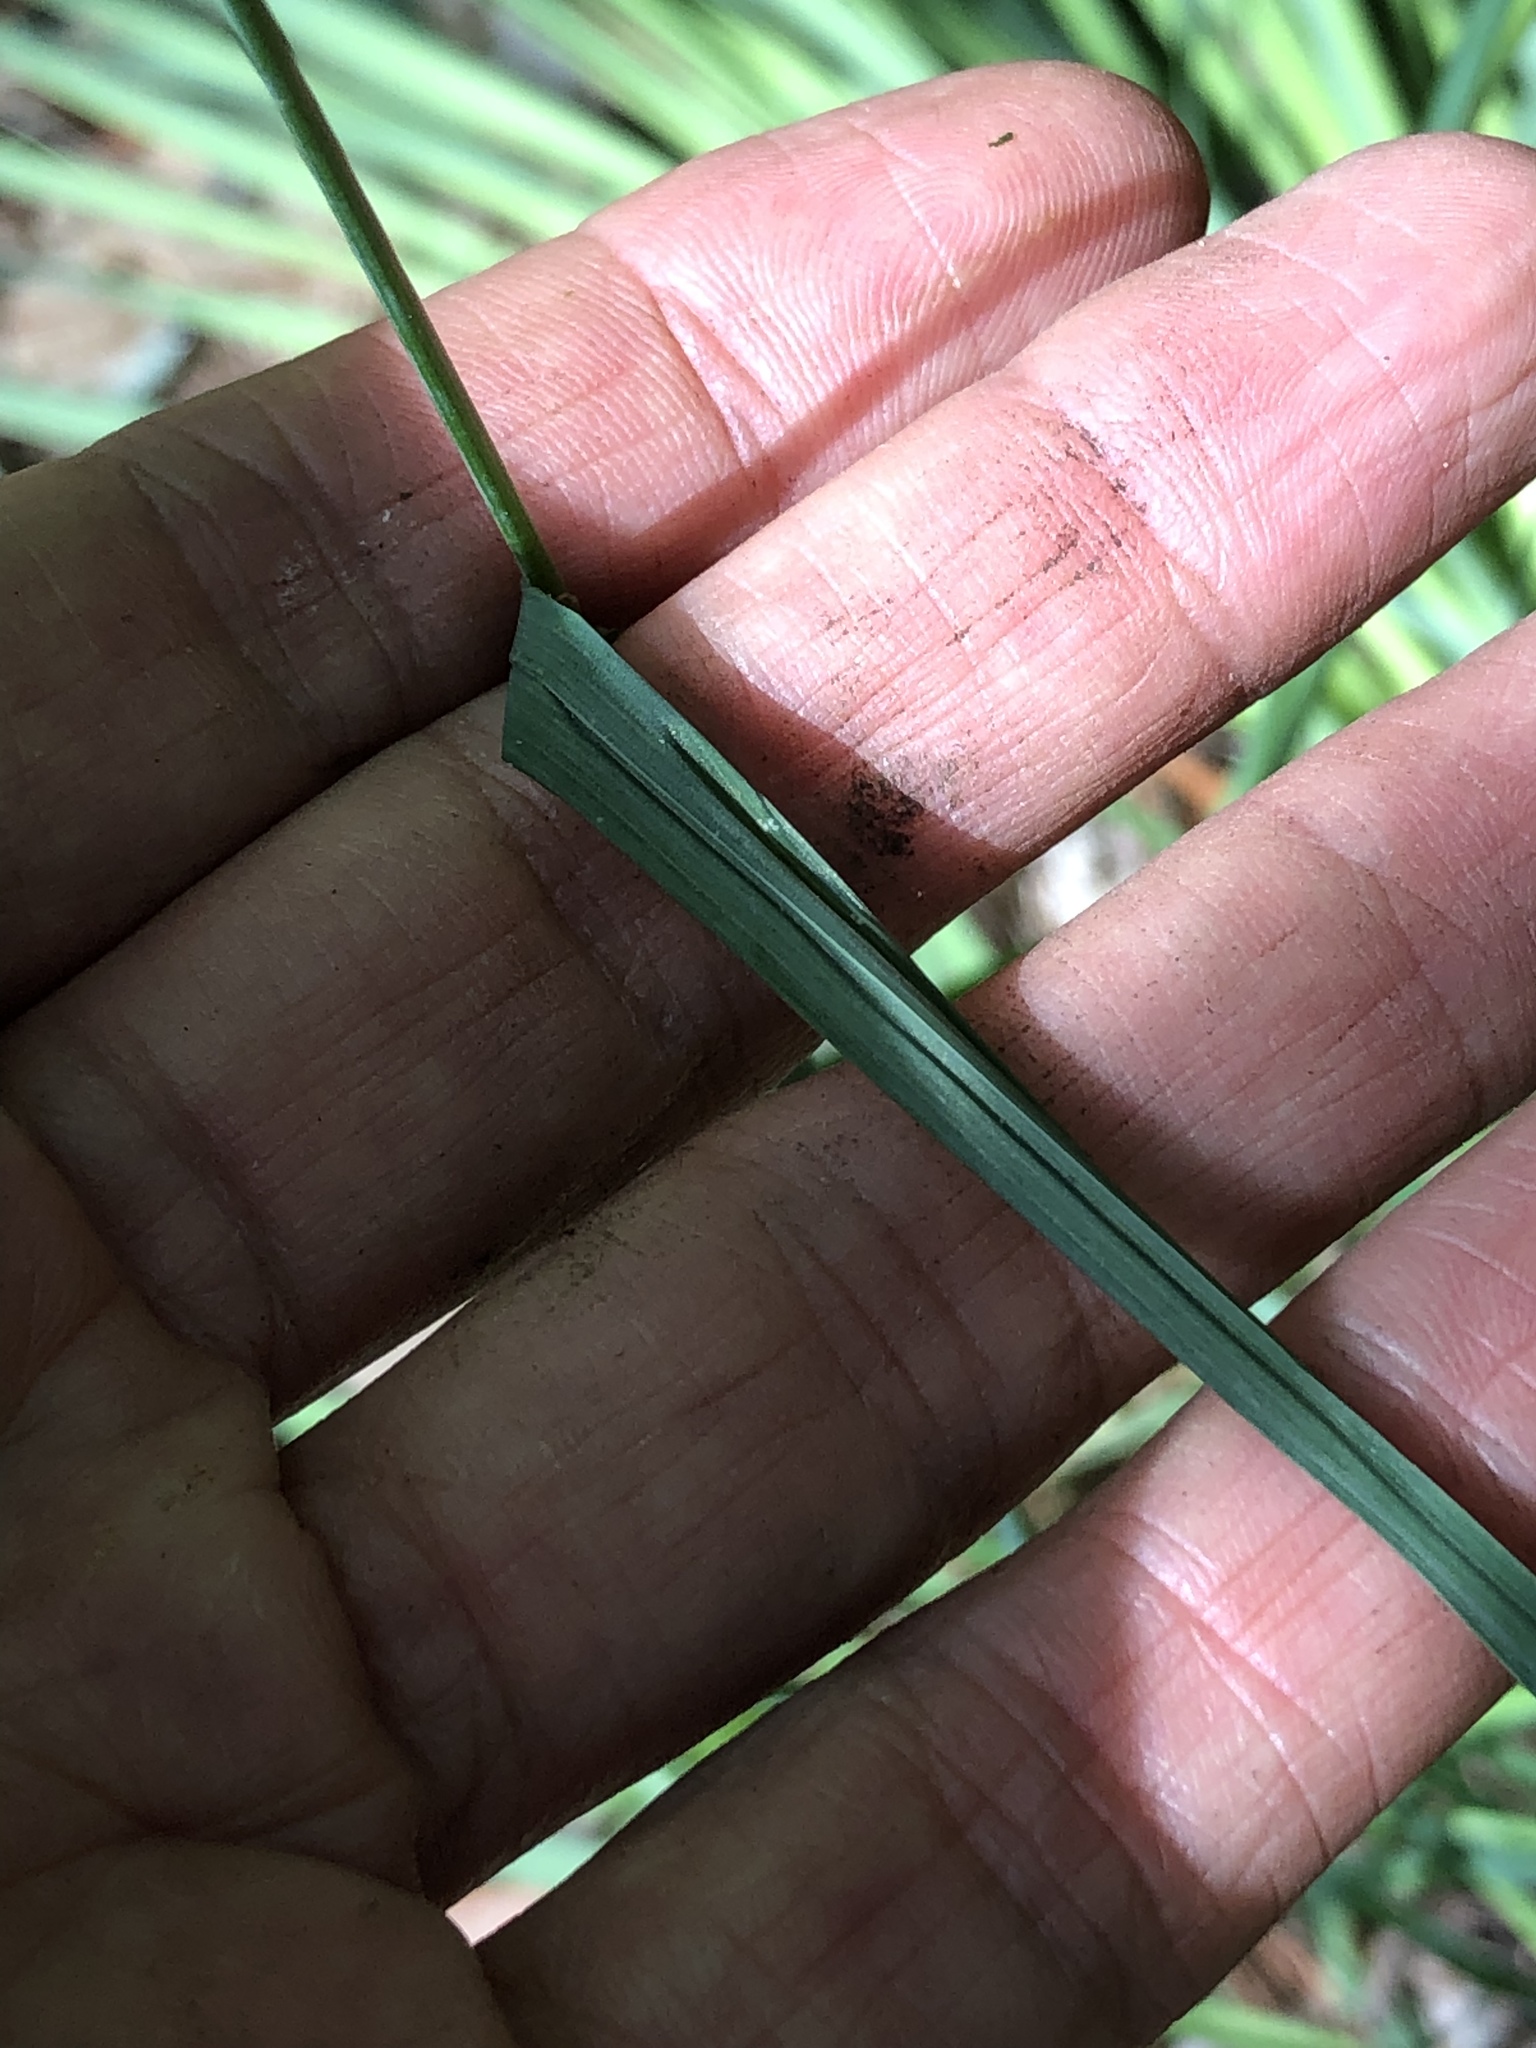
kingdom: Plantae
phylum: Tracheophyta
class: Liliopsida
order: Poales
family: Poaceae
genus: Dactylis
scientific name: Dactylis glomerata
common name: Orchardgrass
